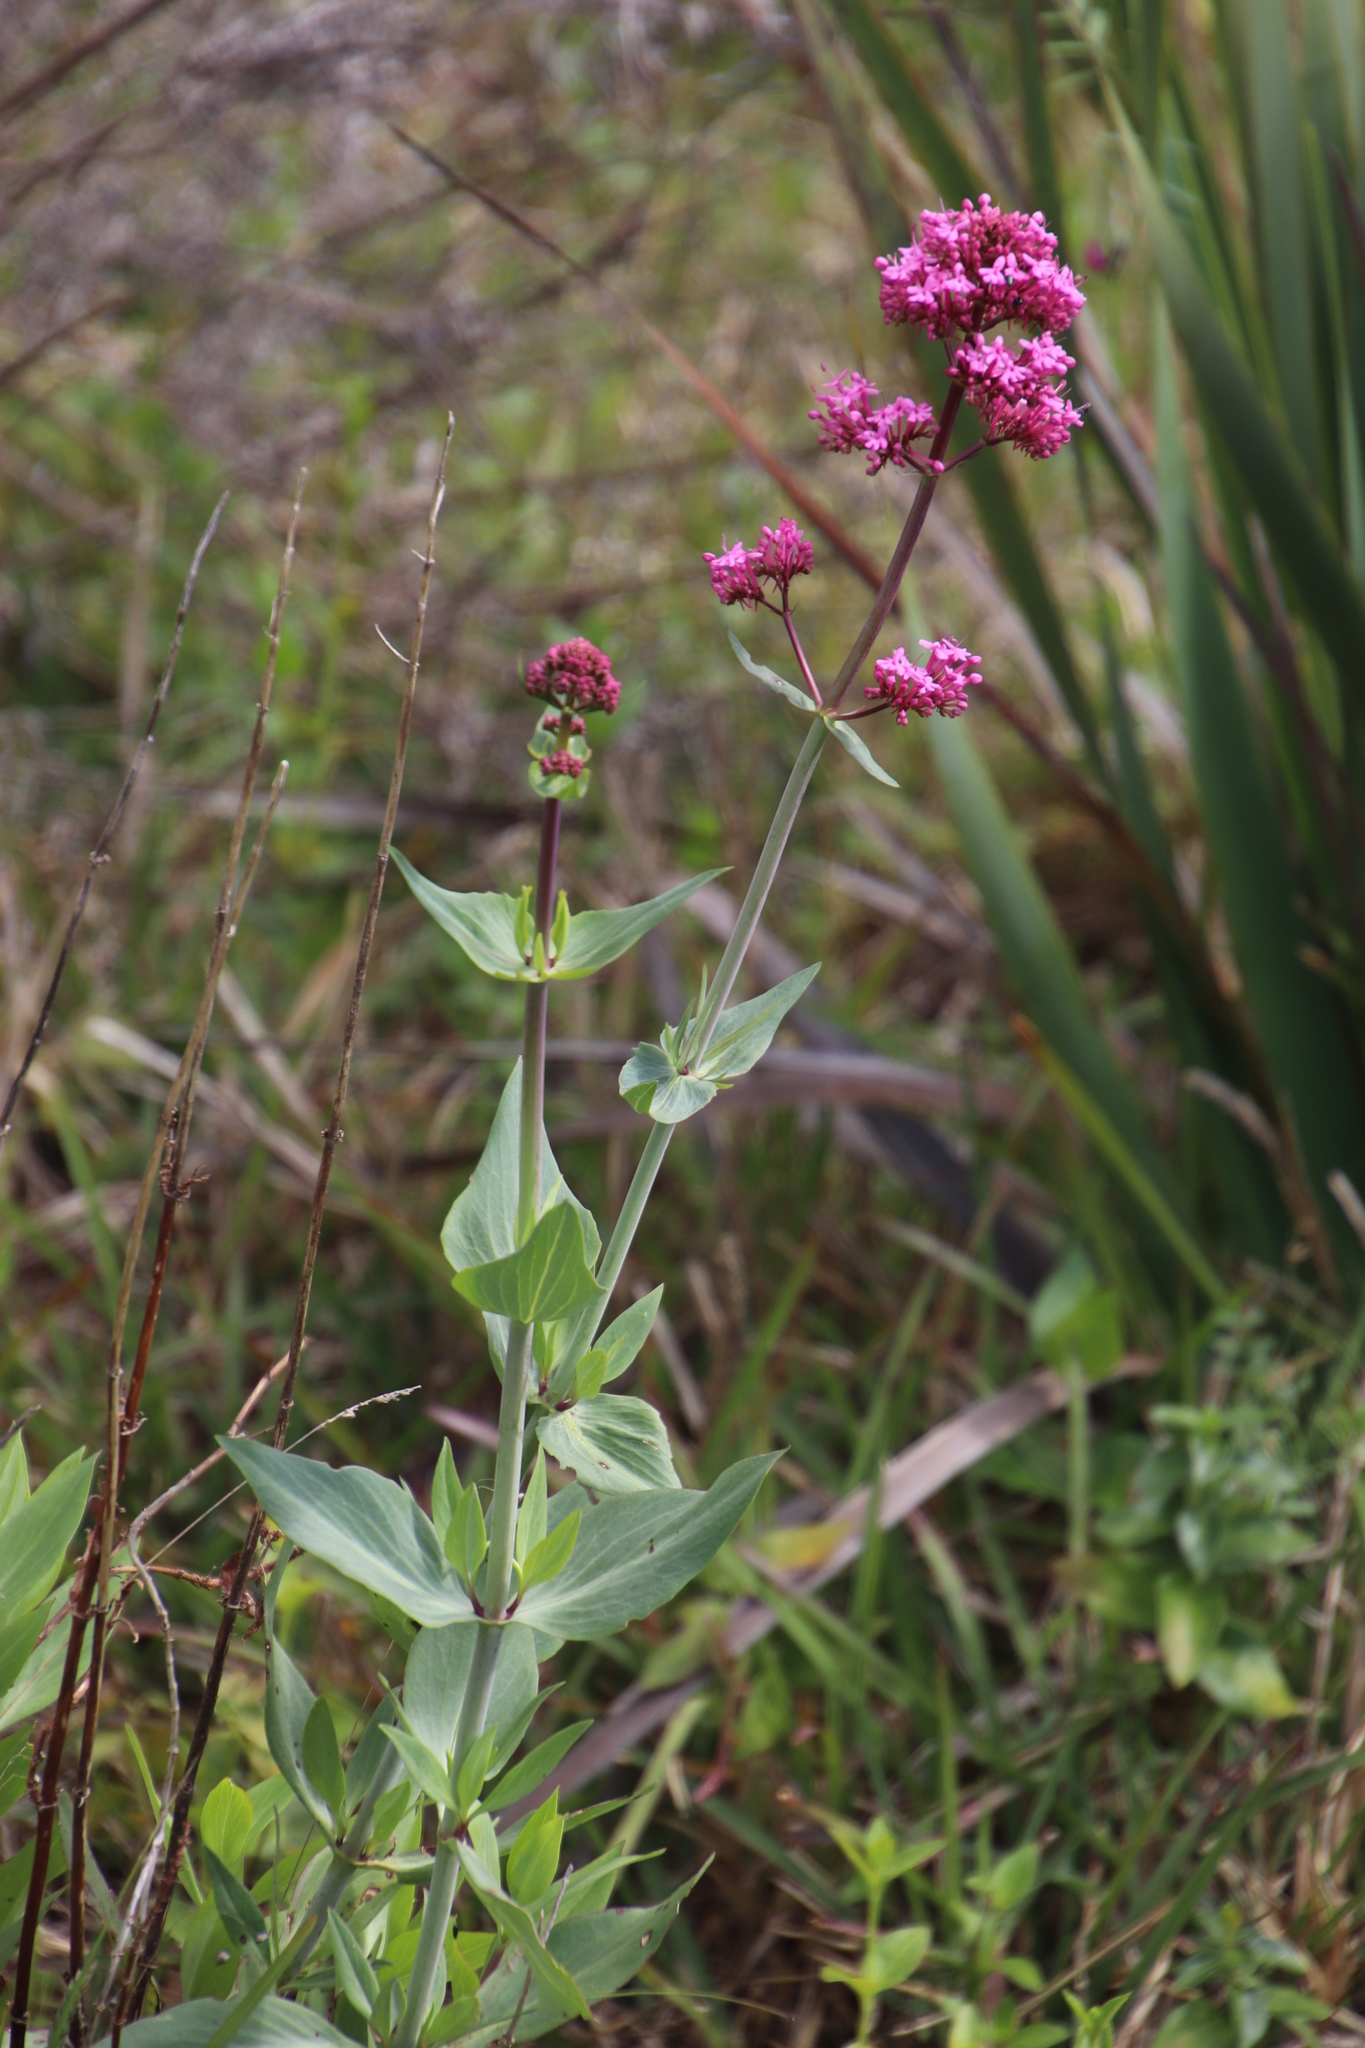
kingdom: Plantae
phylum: Tracheophyta
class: Magnoliopsida
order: Dipsacales
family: Caprifoliaceae
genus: Centranthus
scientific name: Centranthus ruber
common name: Red valerian
